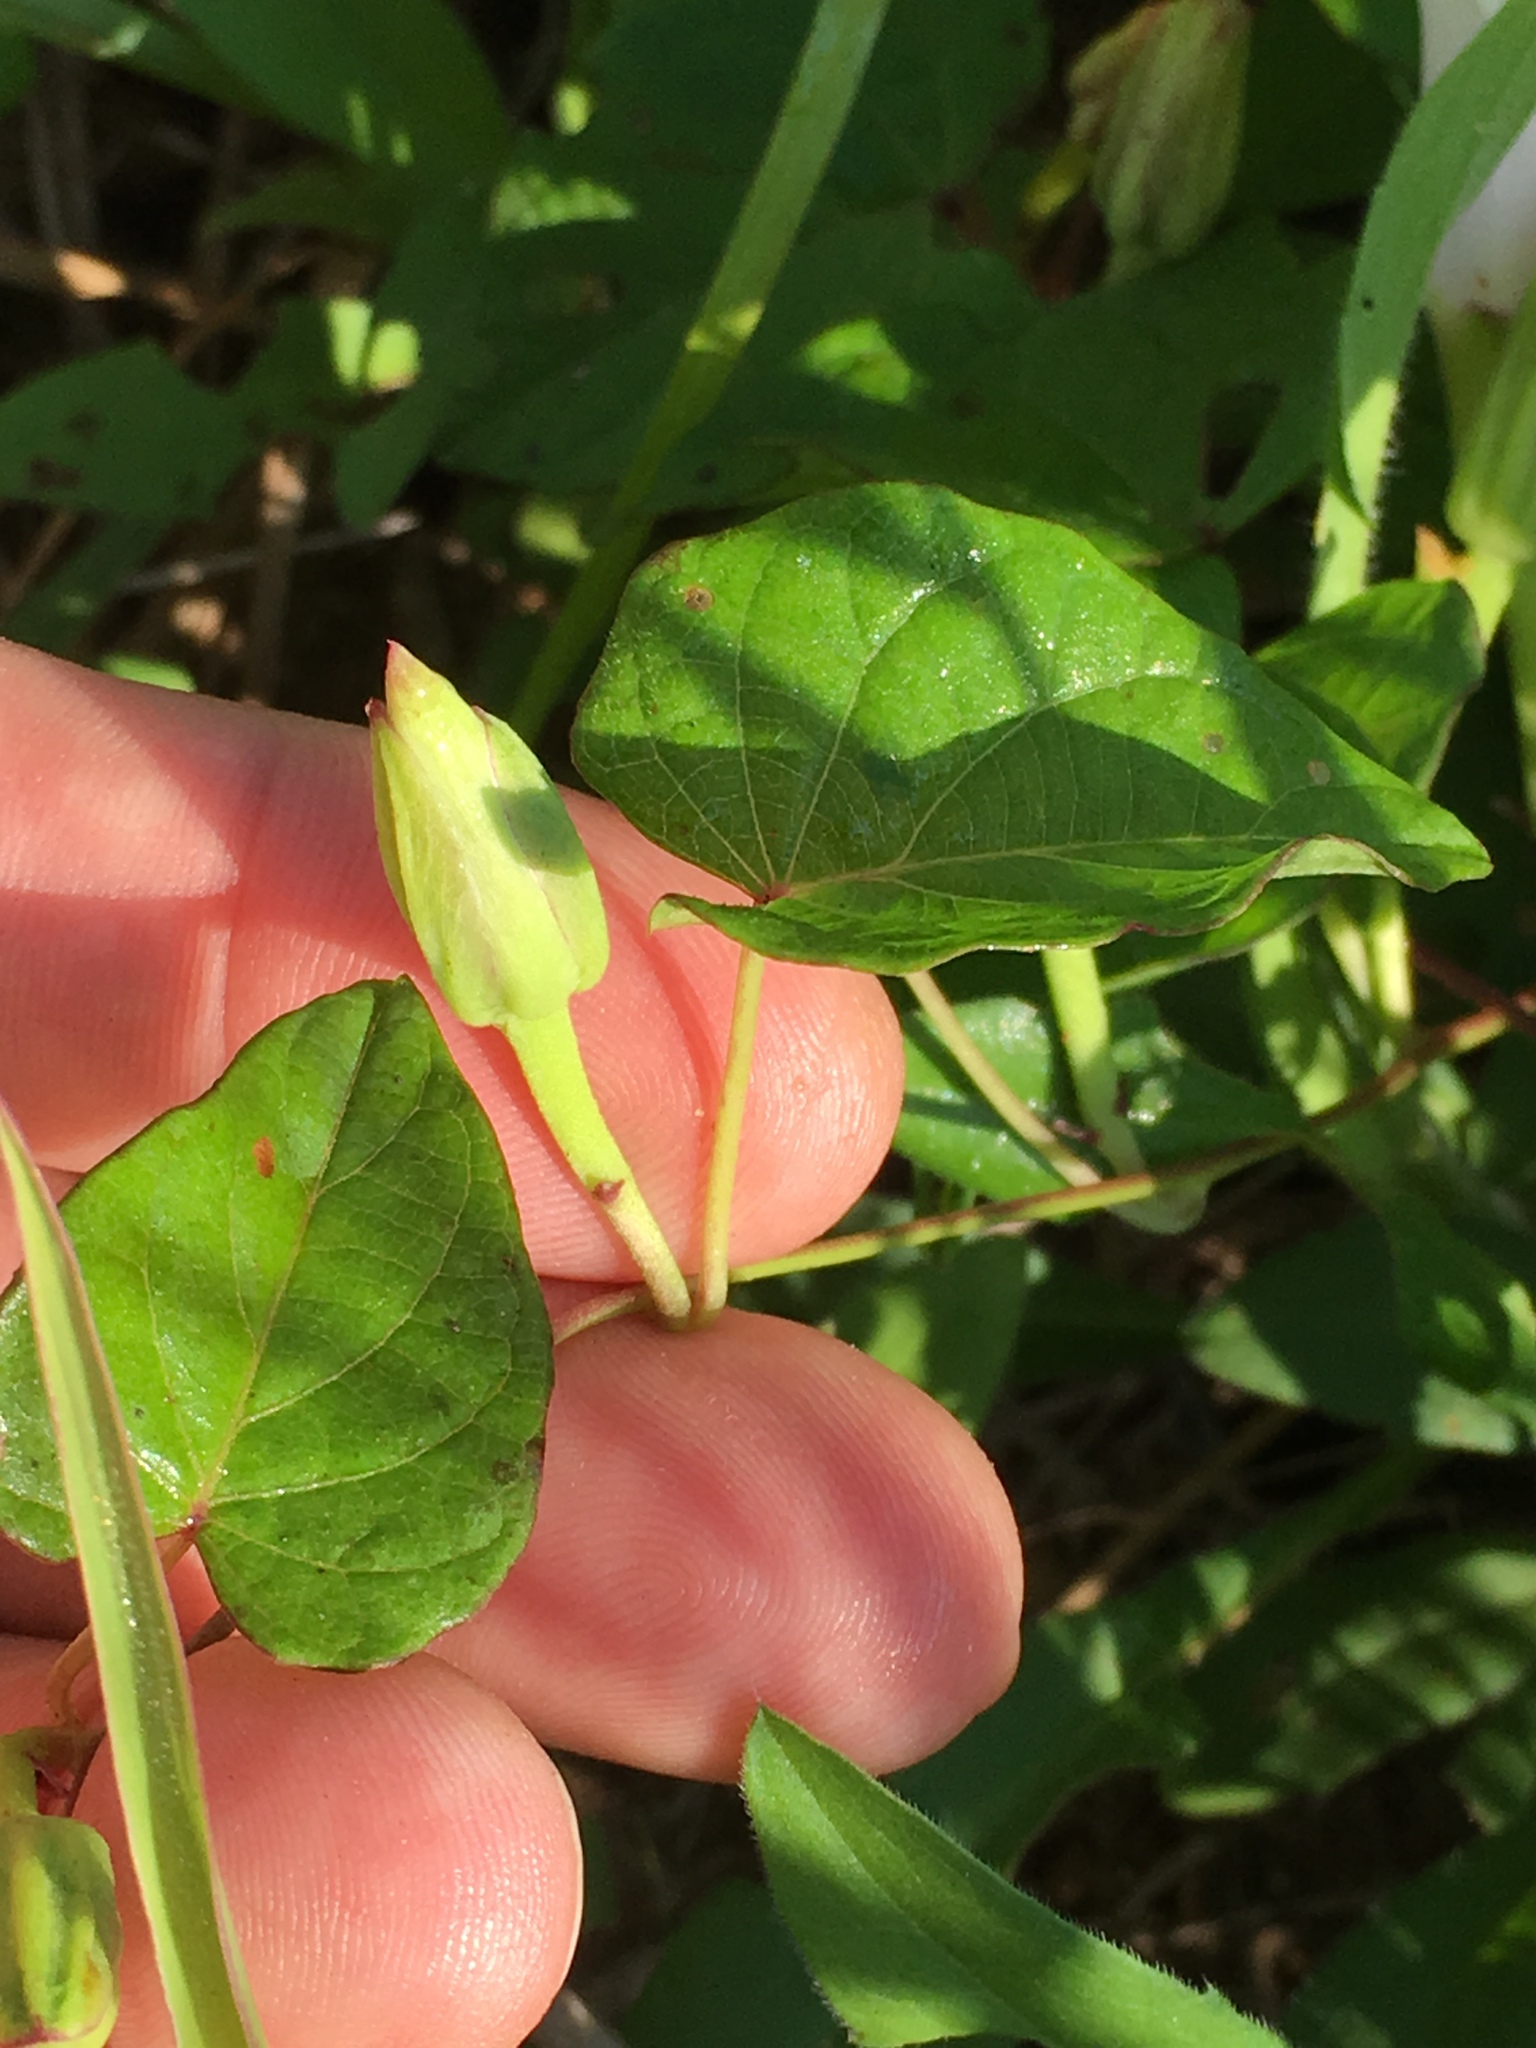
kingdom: Plantae
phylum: Tracheophyta
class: Magnoliopsida
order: Solanales
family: Convolvulaceae
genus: Ipomoea
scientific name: Ipomoea pandurata
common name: Man-of-the-earth
